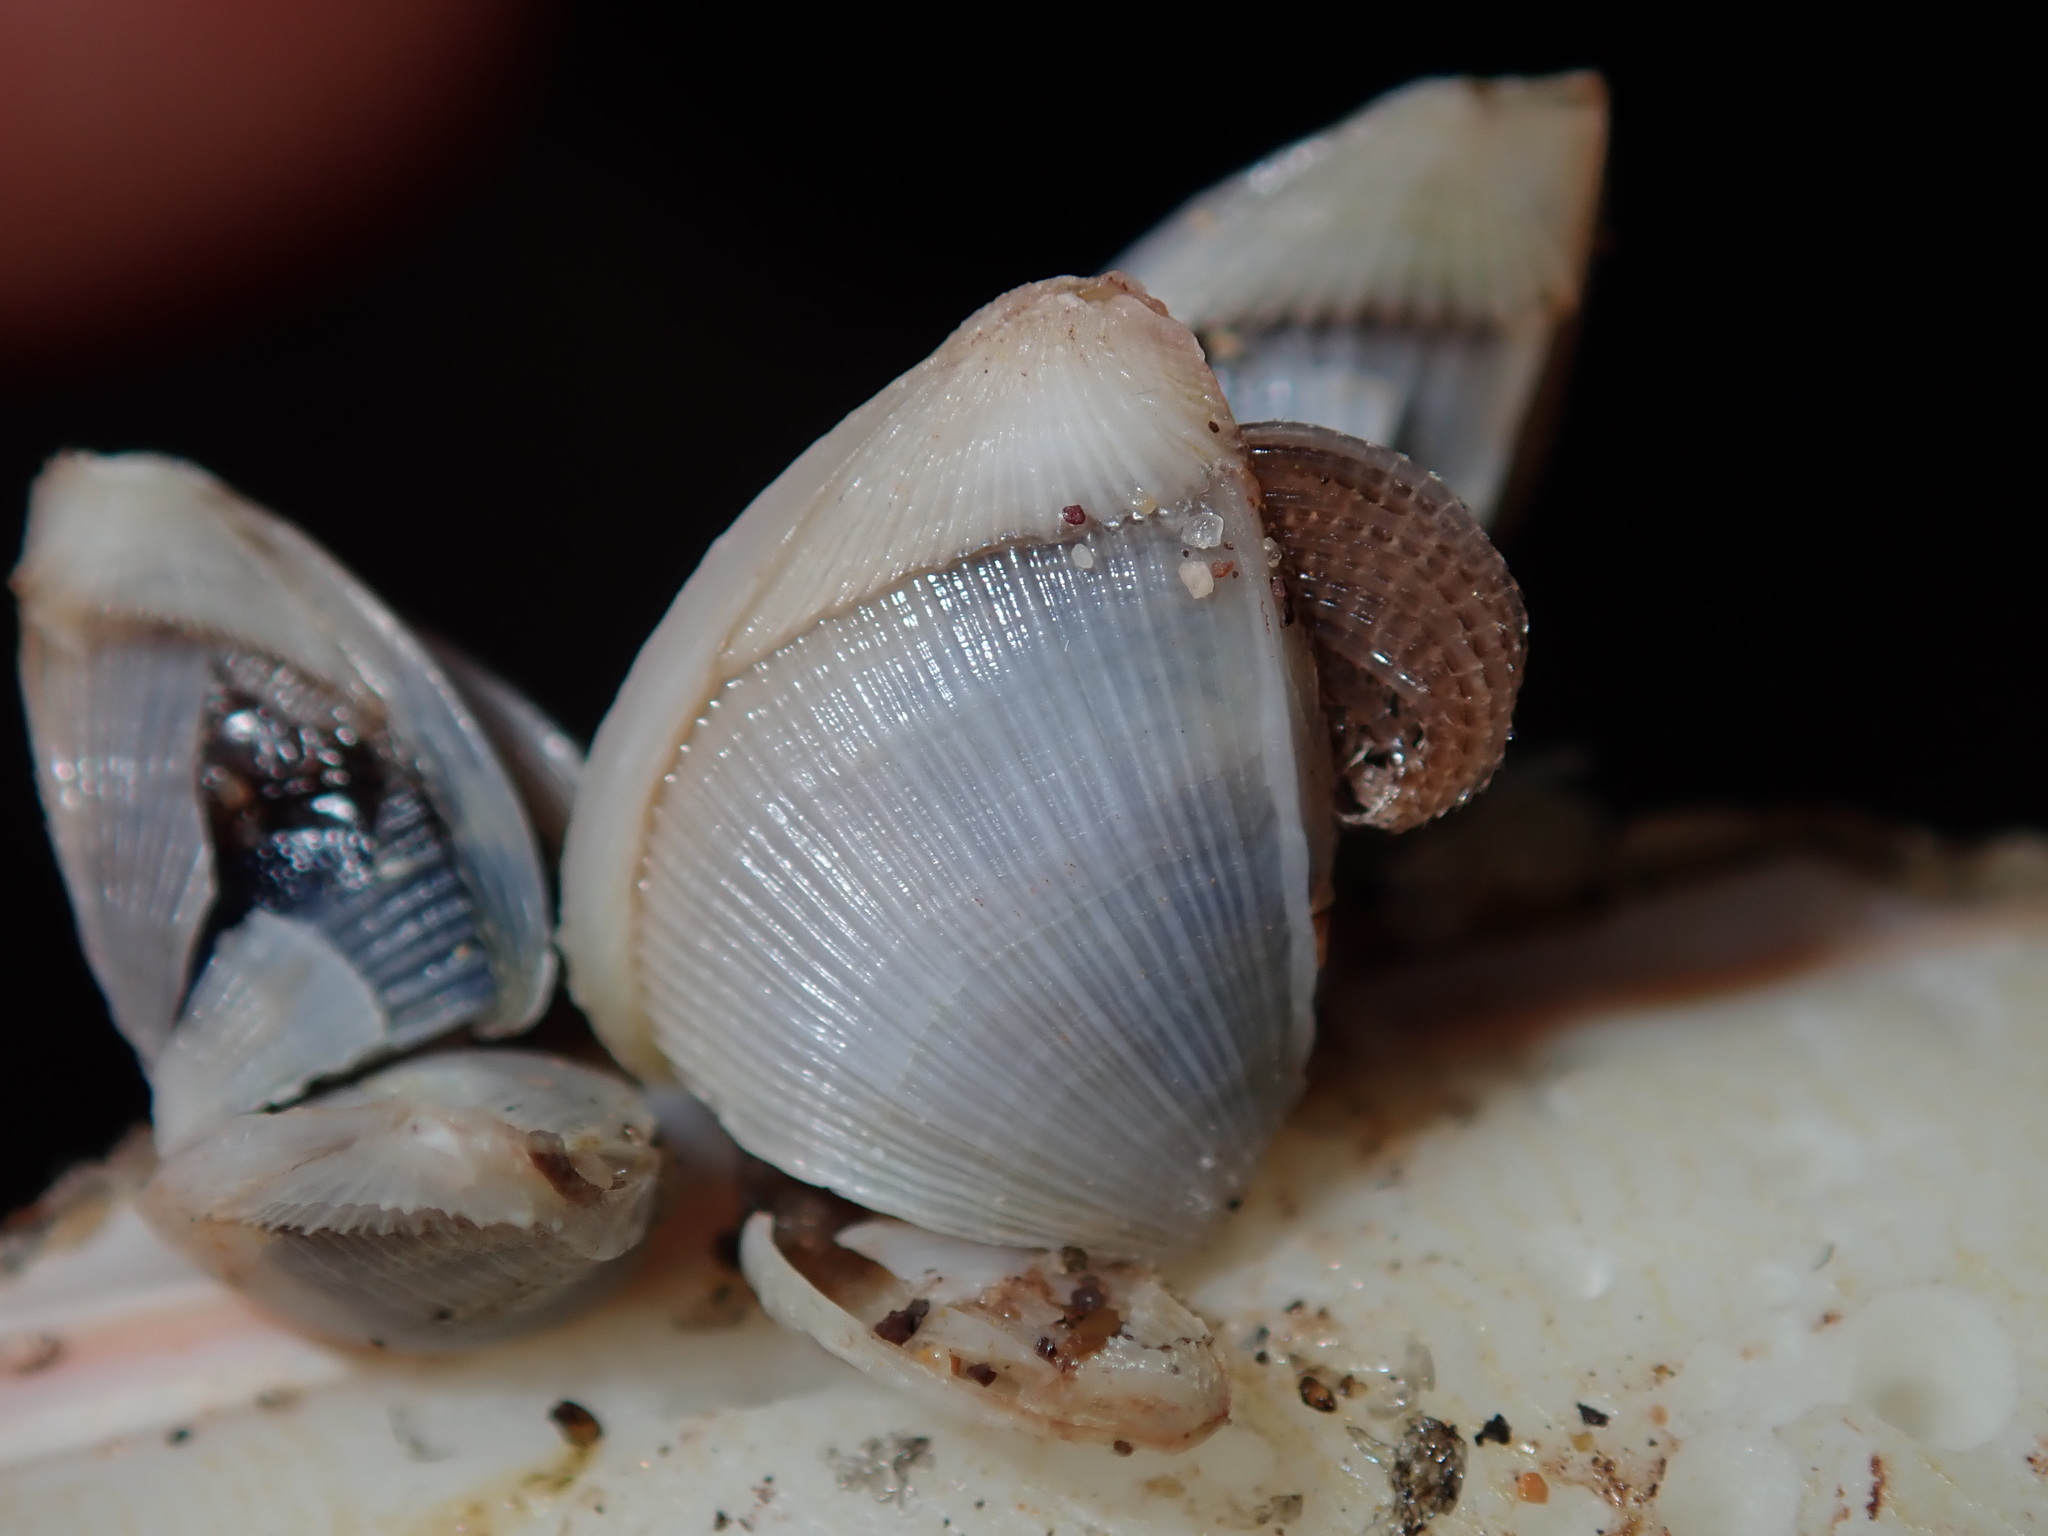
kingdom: Animalia
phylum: Arthropoda
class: Maxillopoda
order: Pedunculata
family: Lepadidae
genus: Lepas
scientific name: Lepas pectinata
